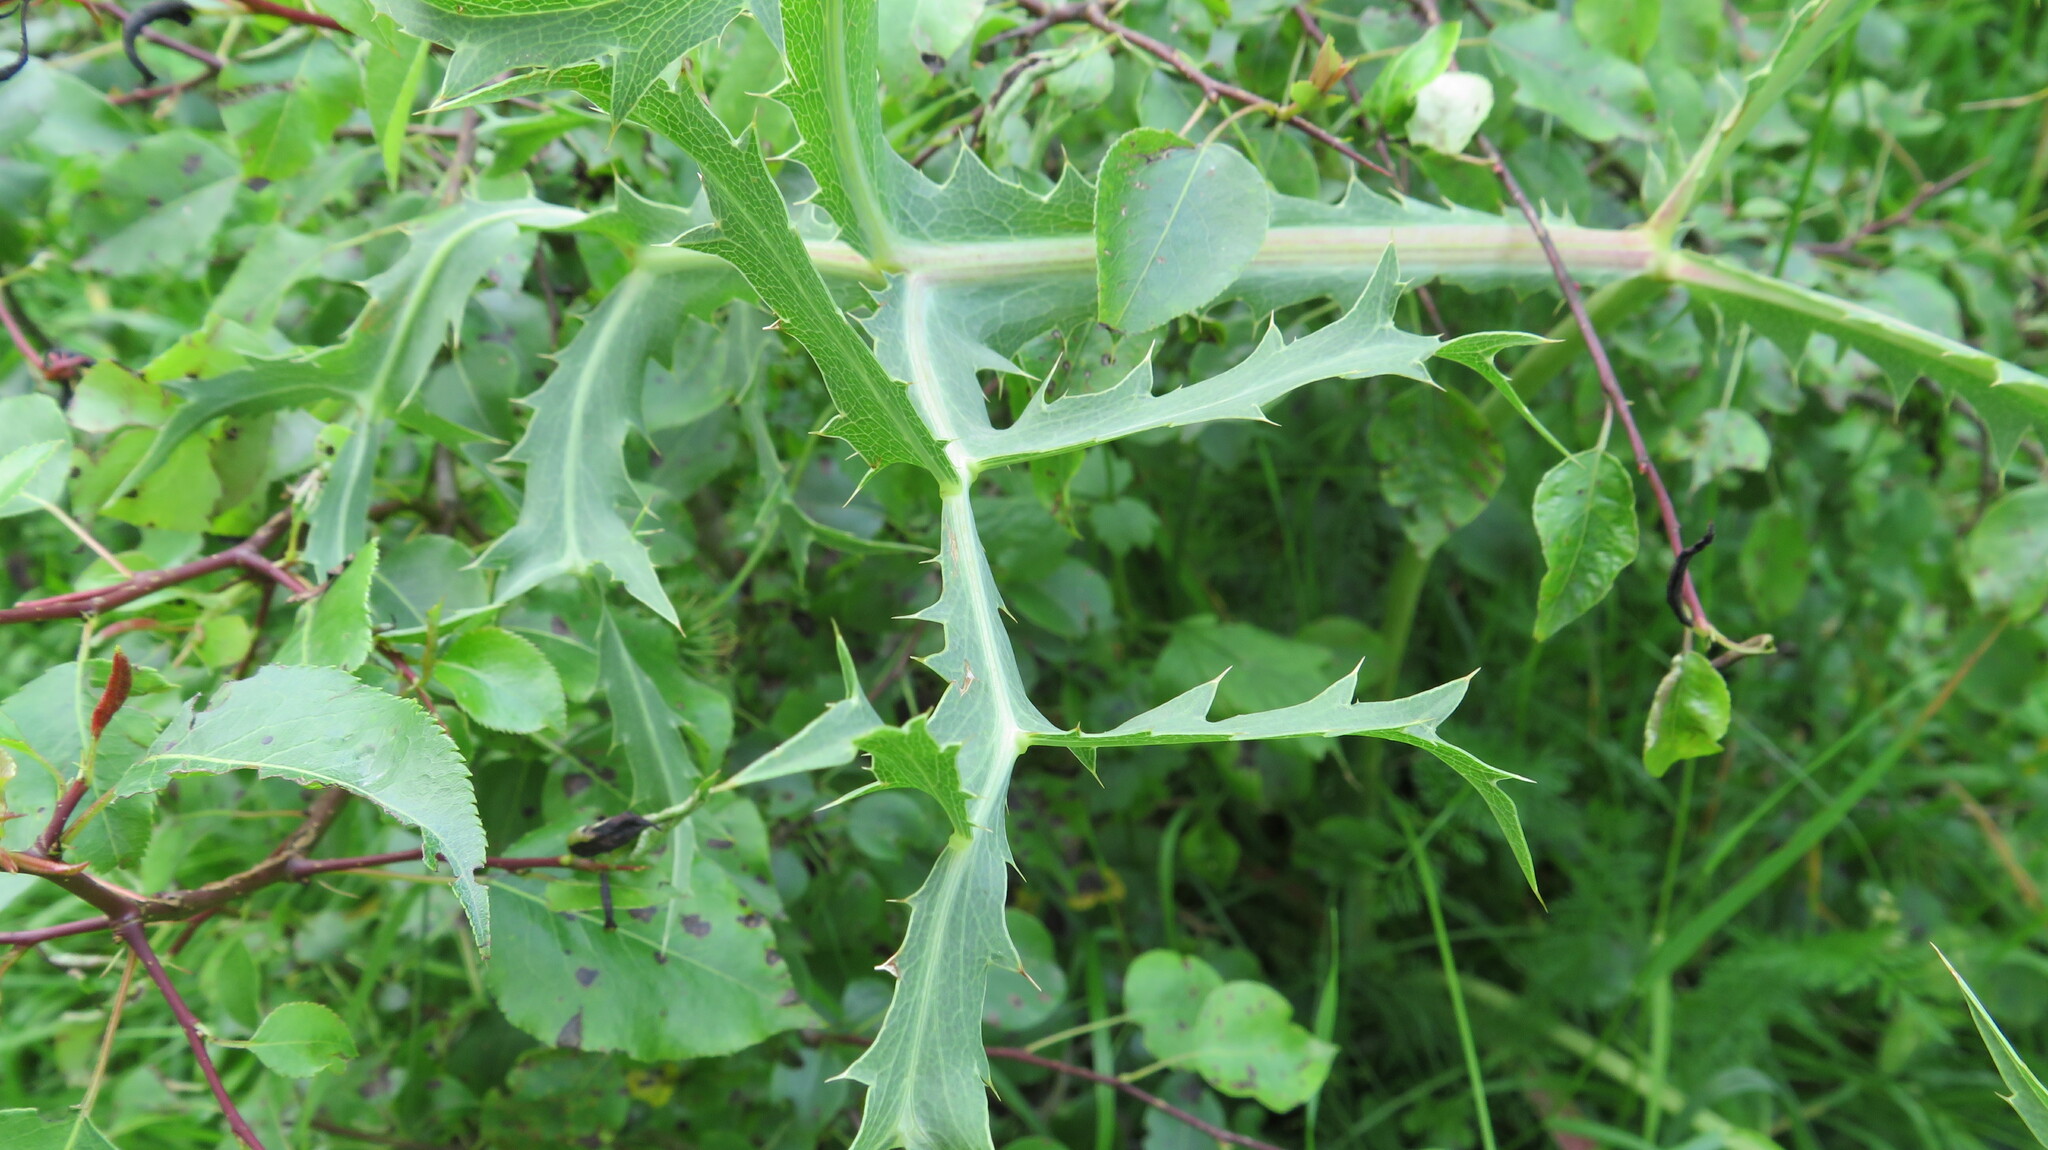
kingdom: Plantae
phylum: Tracheophyta
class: Magnoliopsida
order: Apiales
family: Apiaceae
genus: Eryngium
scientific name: Eryngium campestre
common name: Field eryngo
